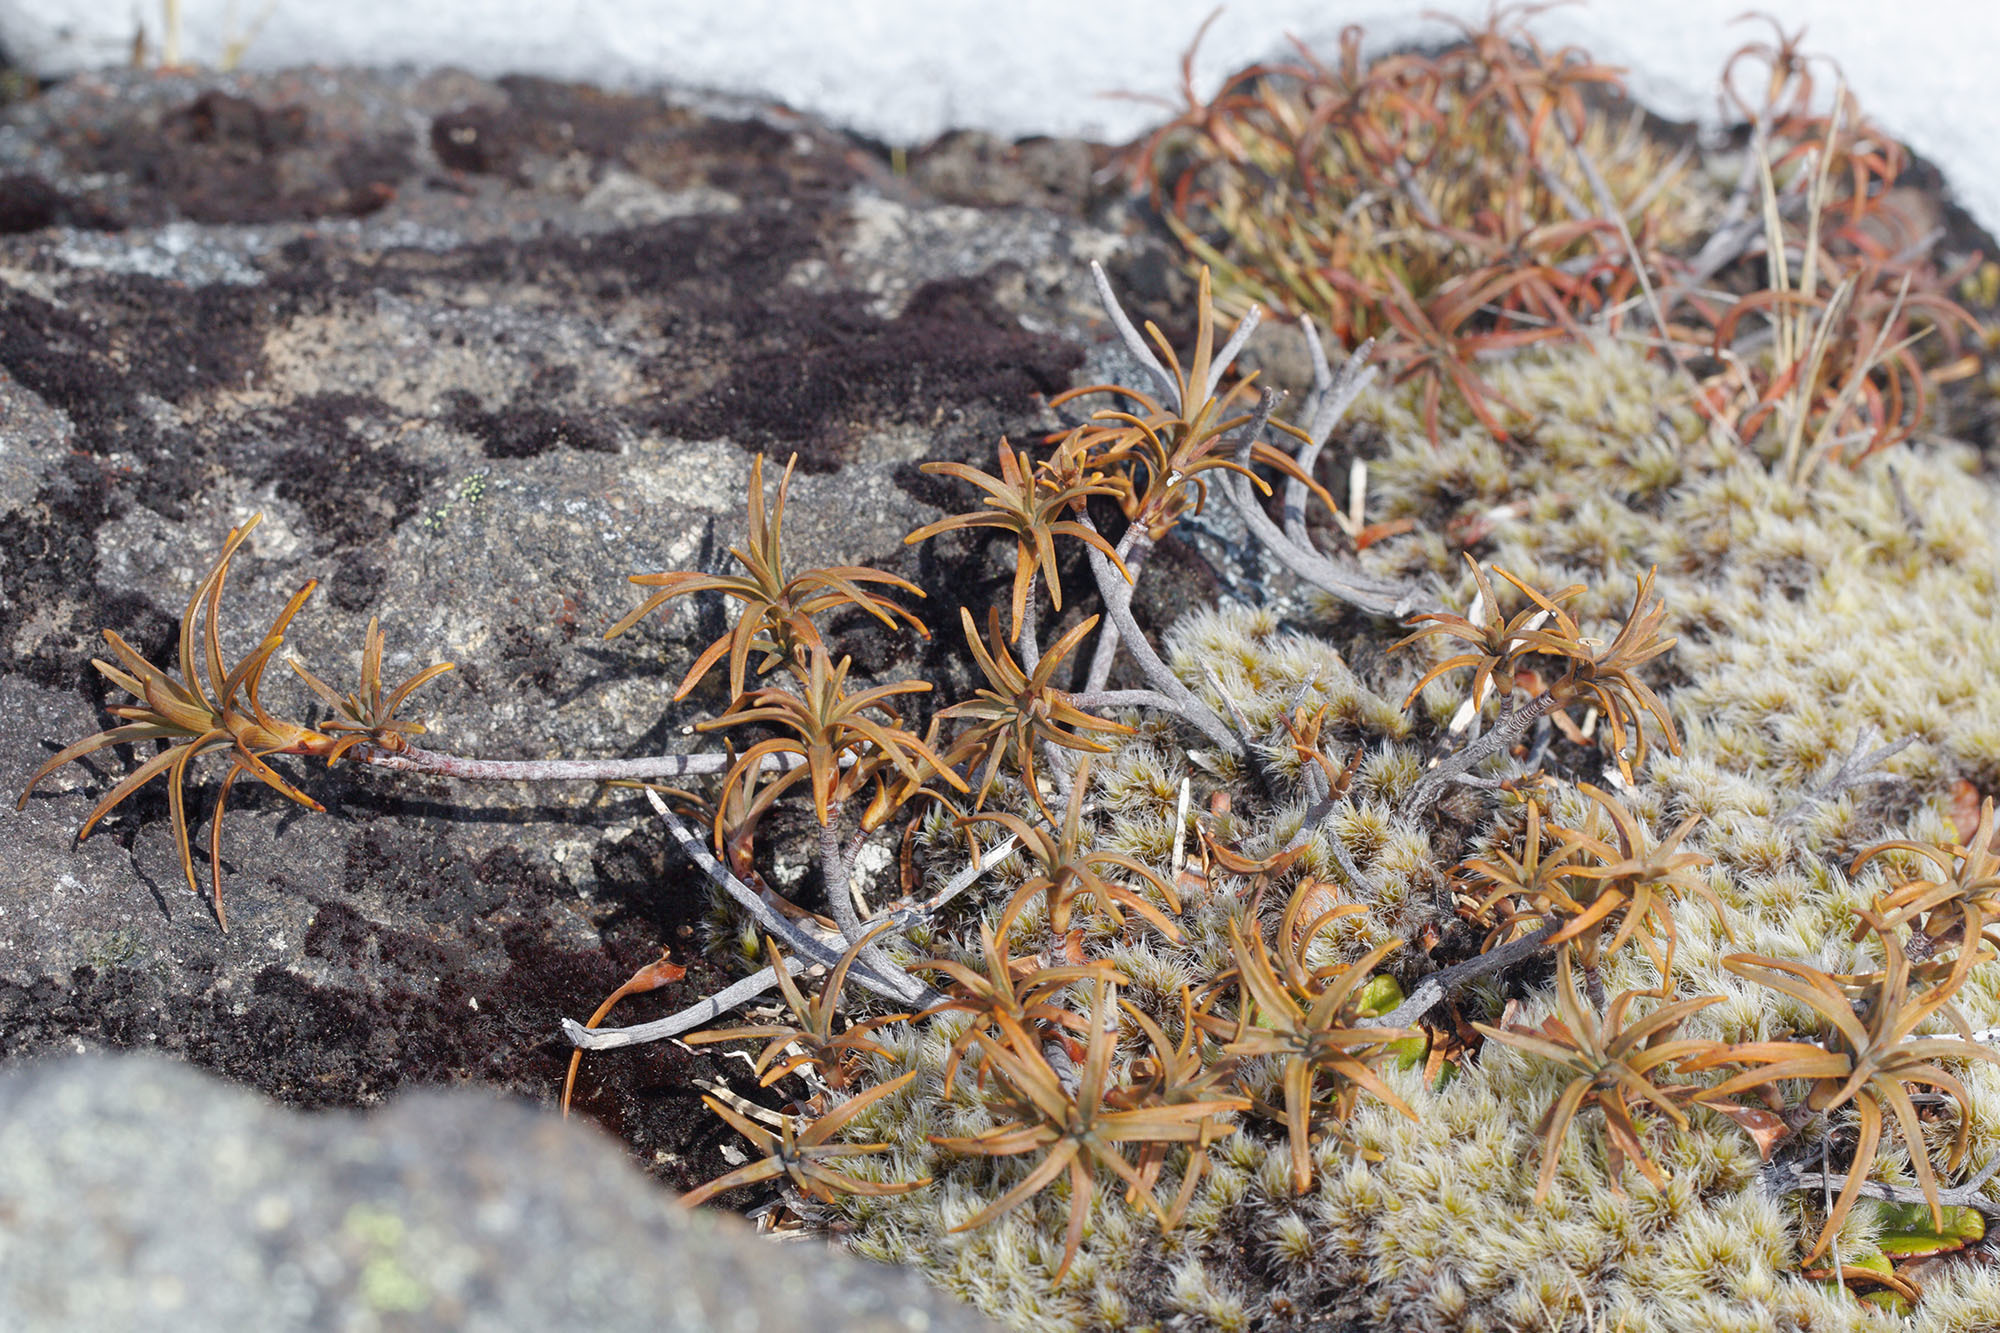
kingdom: Plantae
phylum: Tracheophyta
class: Magnoliopsida
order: Ericales
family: Ericaceae
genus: Dracophyllum
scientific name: Dracophyllum recurvum
